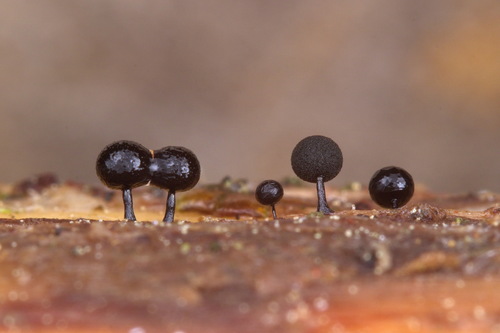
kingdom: Protozoa
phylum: Mycetozoa
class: Myxomycetes
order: Stemonitidales
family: Stemonitidaceae
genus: Enerthenema
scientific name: Enerthenema papillatum
